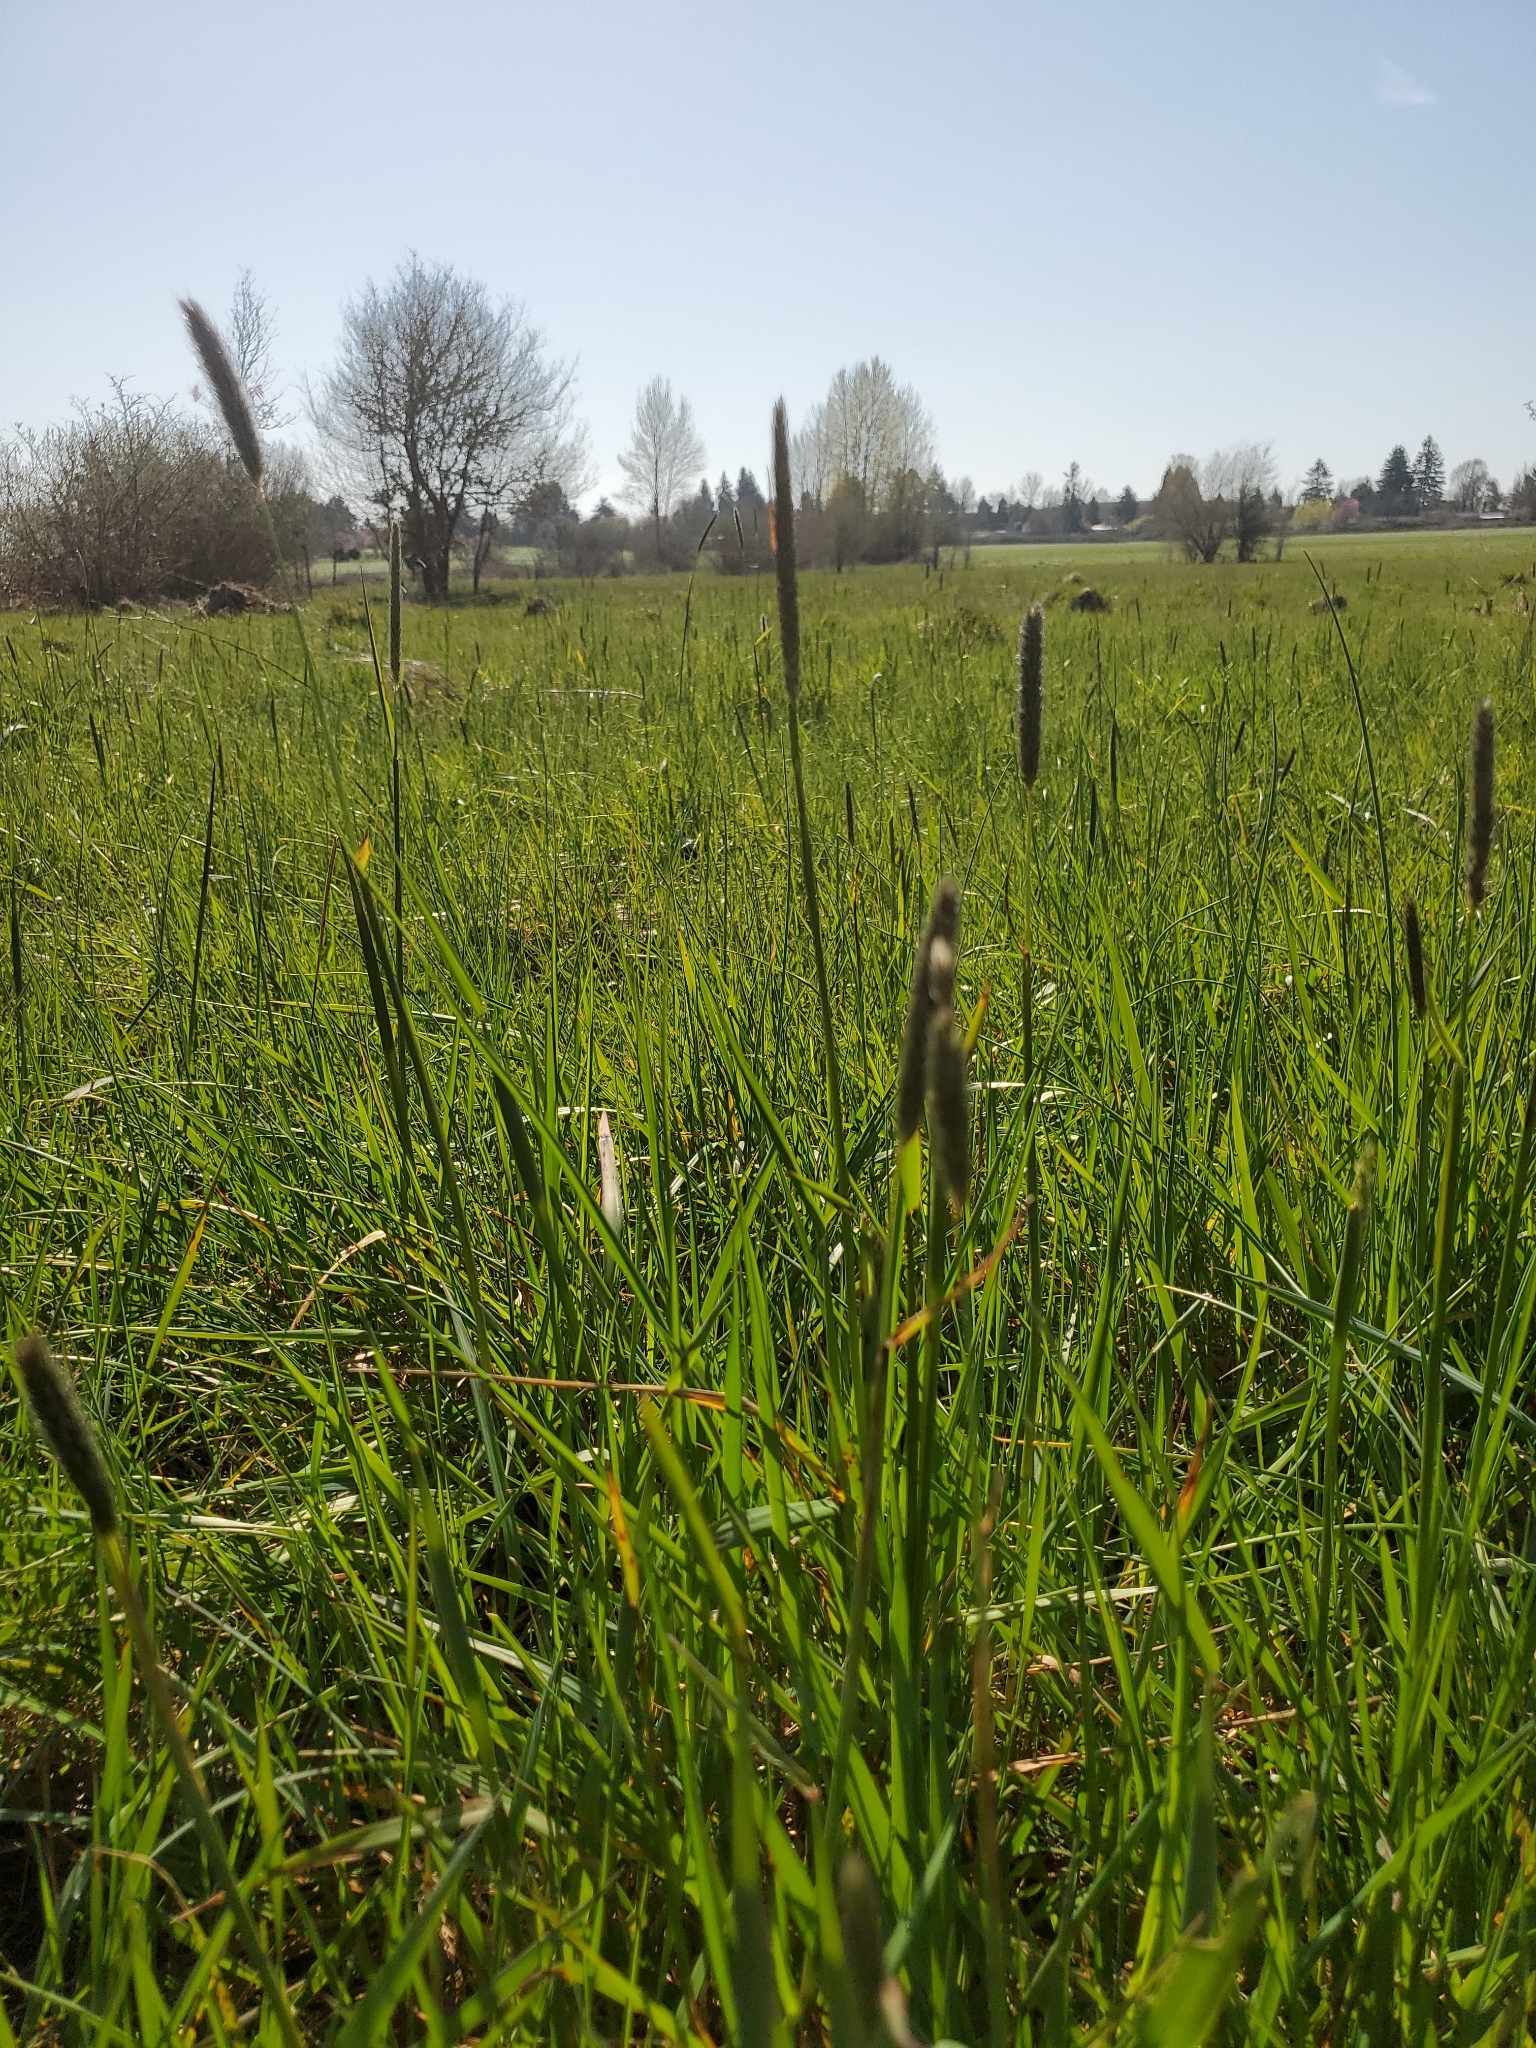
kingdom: Plantae
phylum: Tracheophyta
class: Liliopsida
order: Poales
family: Poaceae
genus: Alopecurus
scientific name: Alopecurus pratensis
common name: Meadow foxtail
